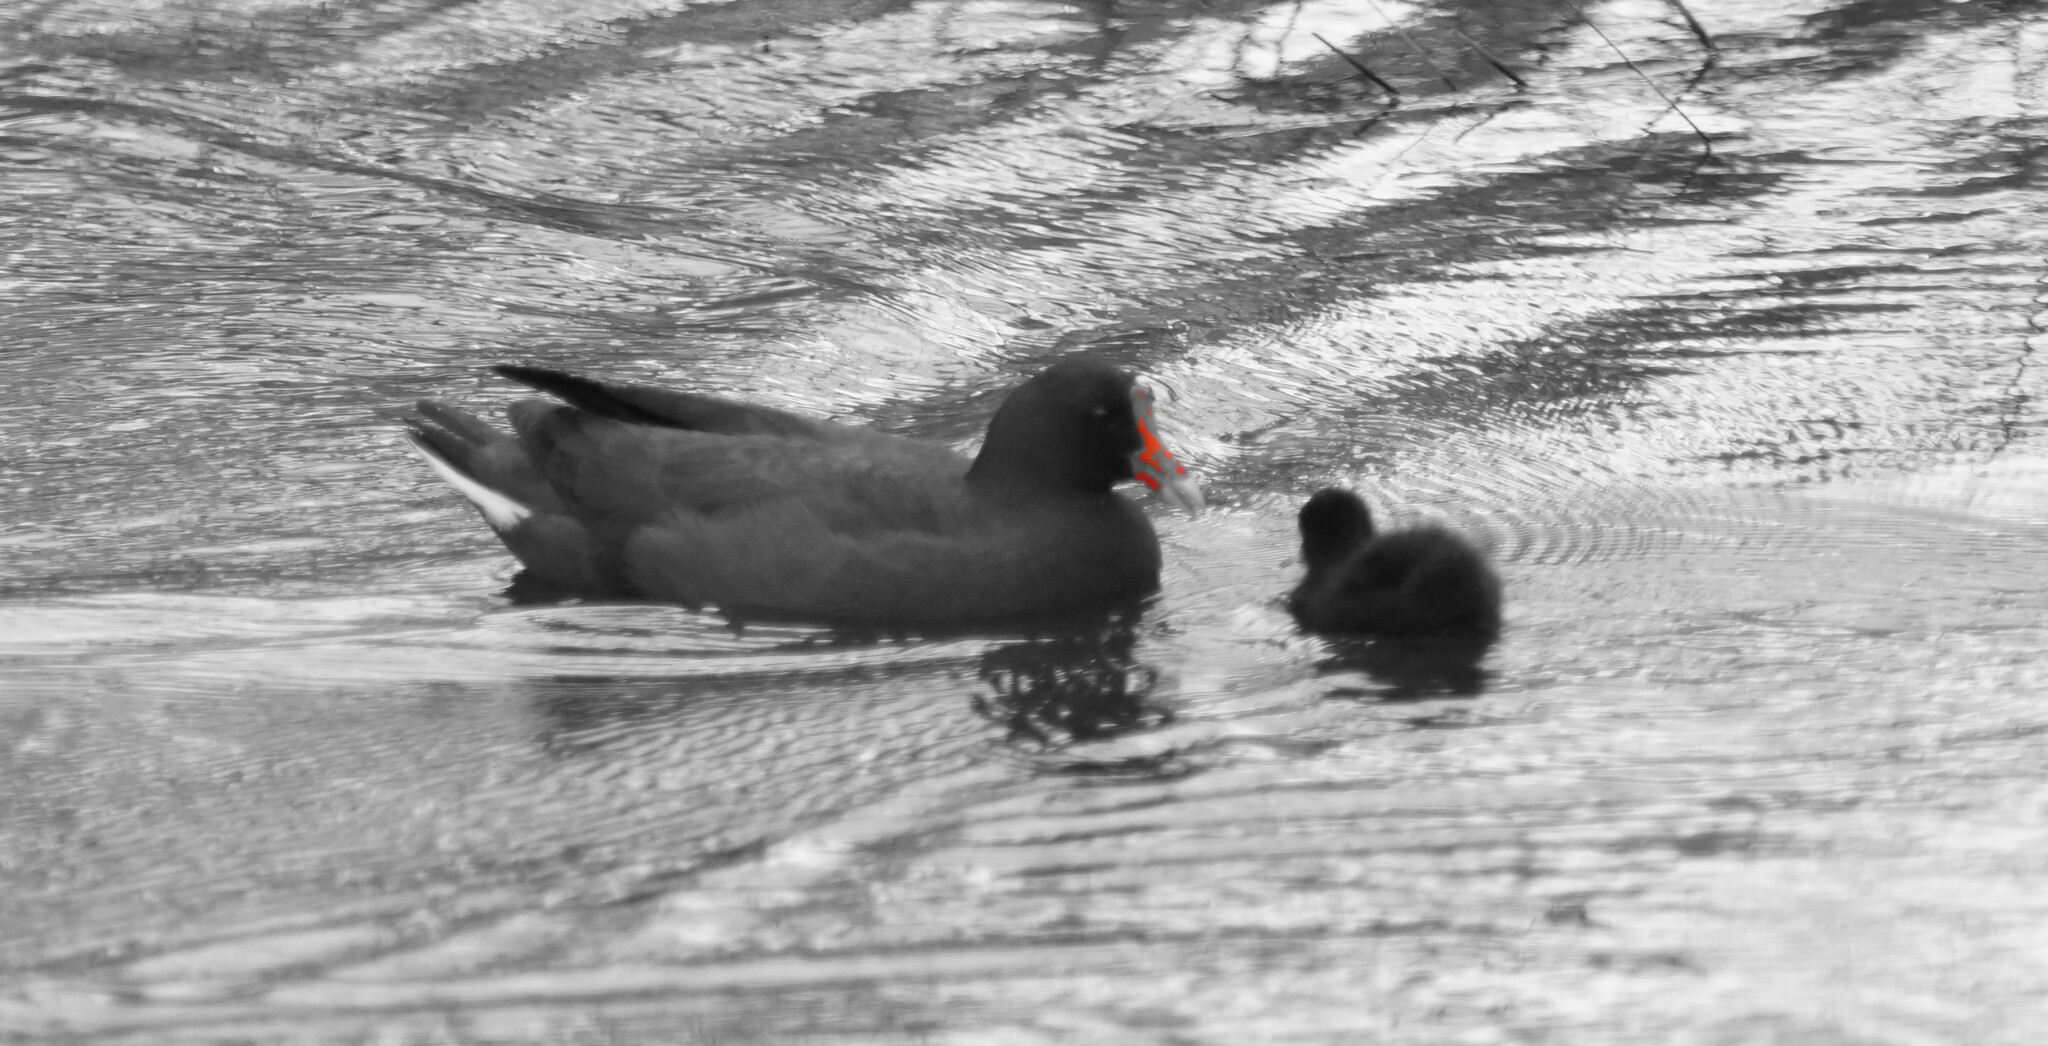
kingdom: Animalia
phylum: Chordata
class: Aves
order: Gruiformes
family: Rallidae
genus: Gallinula
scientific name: Gallinula tenebrosa
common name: Dusky moorhen
